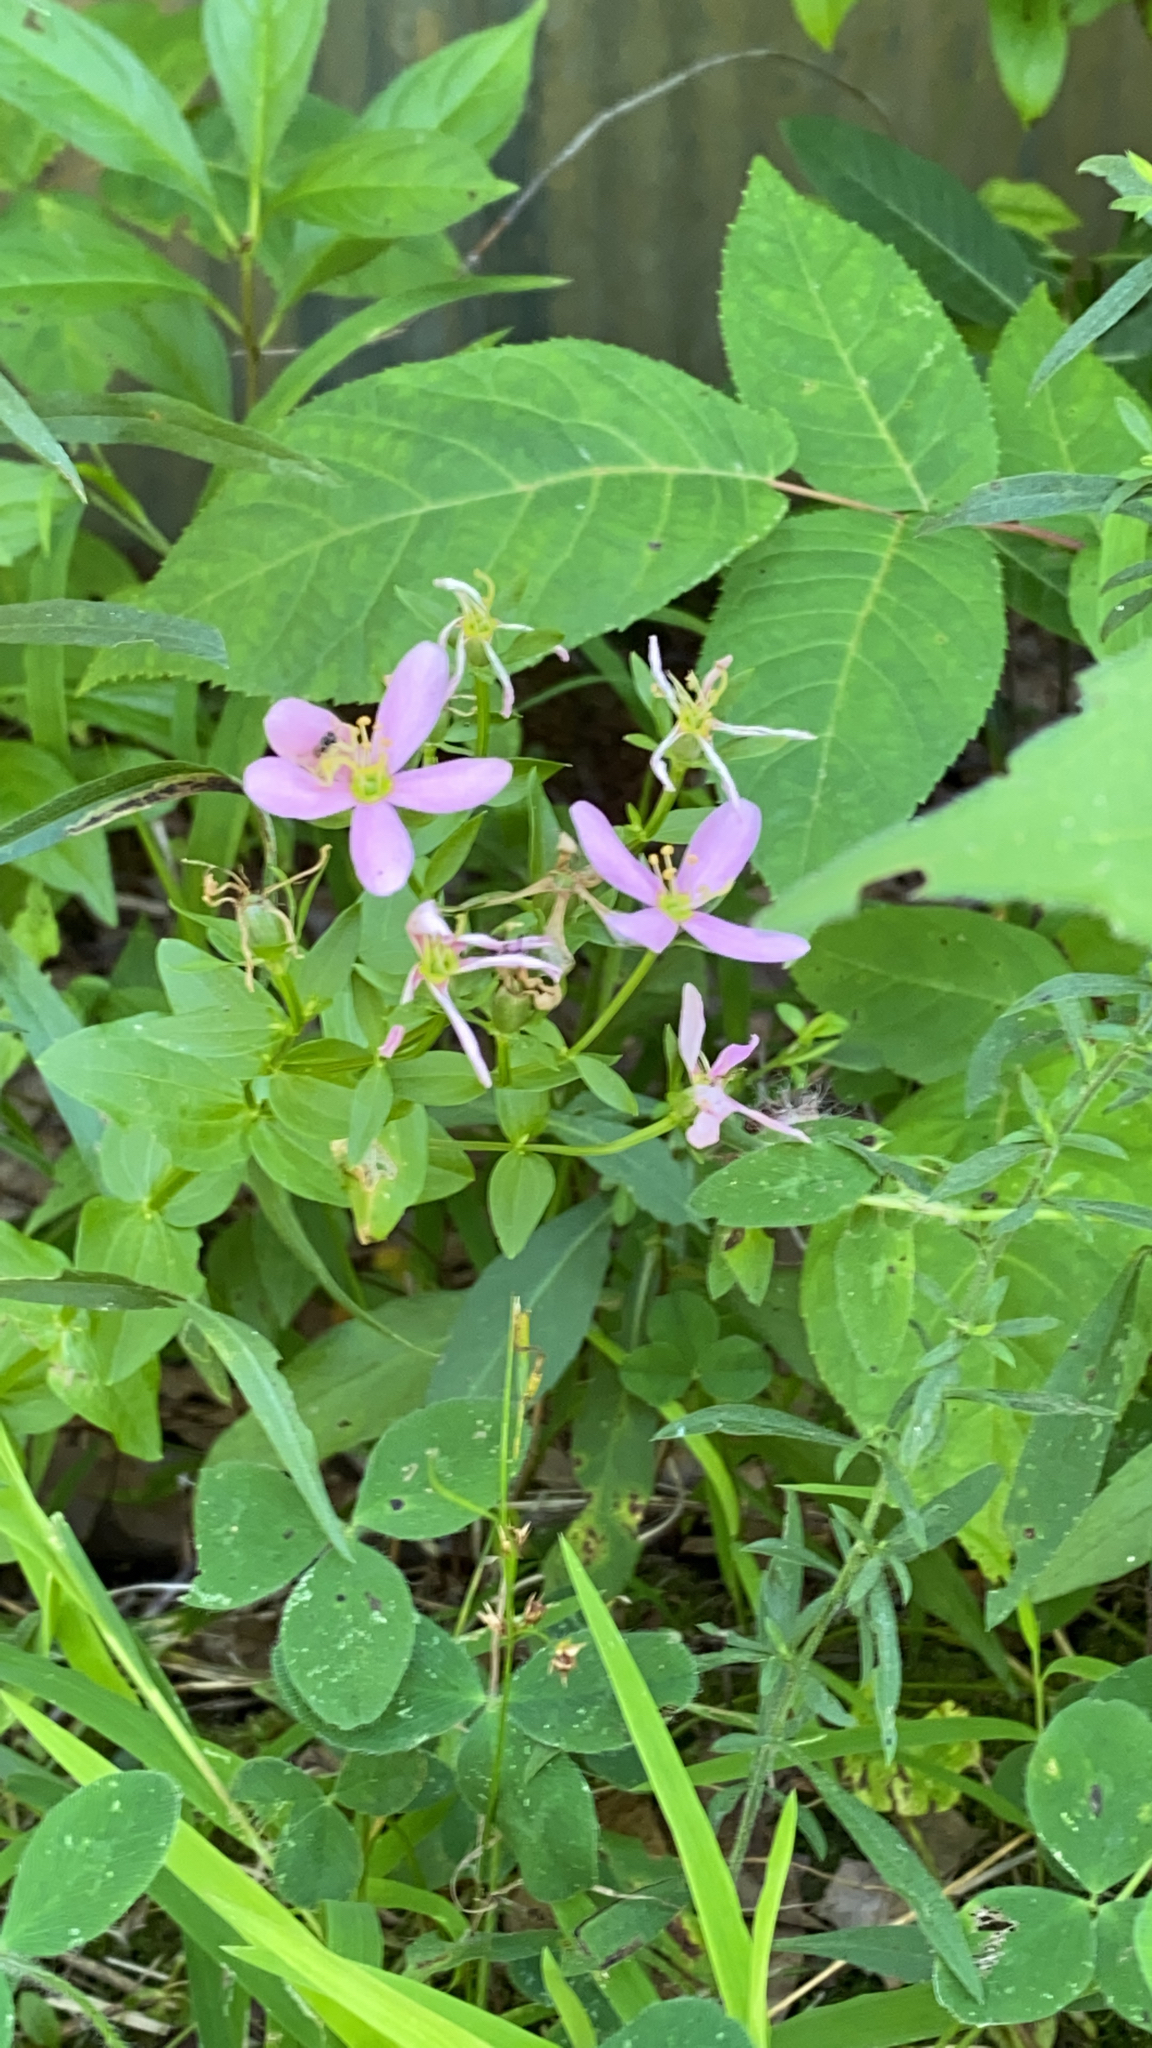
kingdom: Plantae
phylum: Tracheophyta
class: Magnoliopsida
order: Gentianales
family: Gentianaceae
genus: Sabatia
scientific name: Sabatia angularis
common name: Rose-pink
